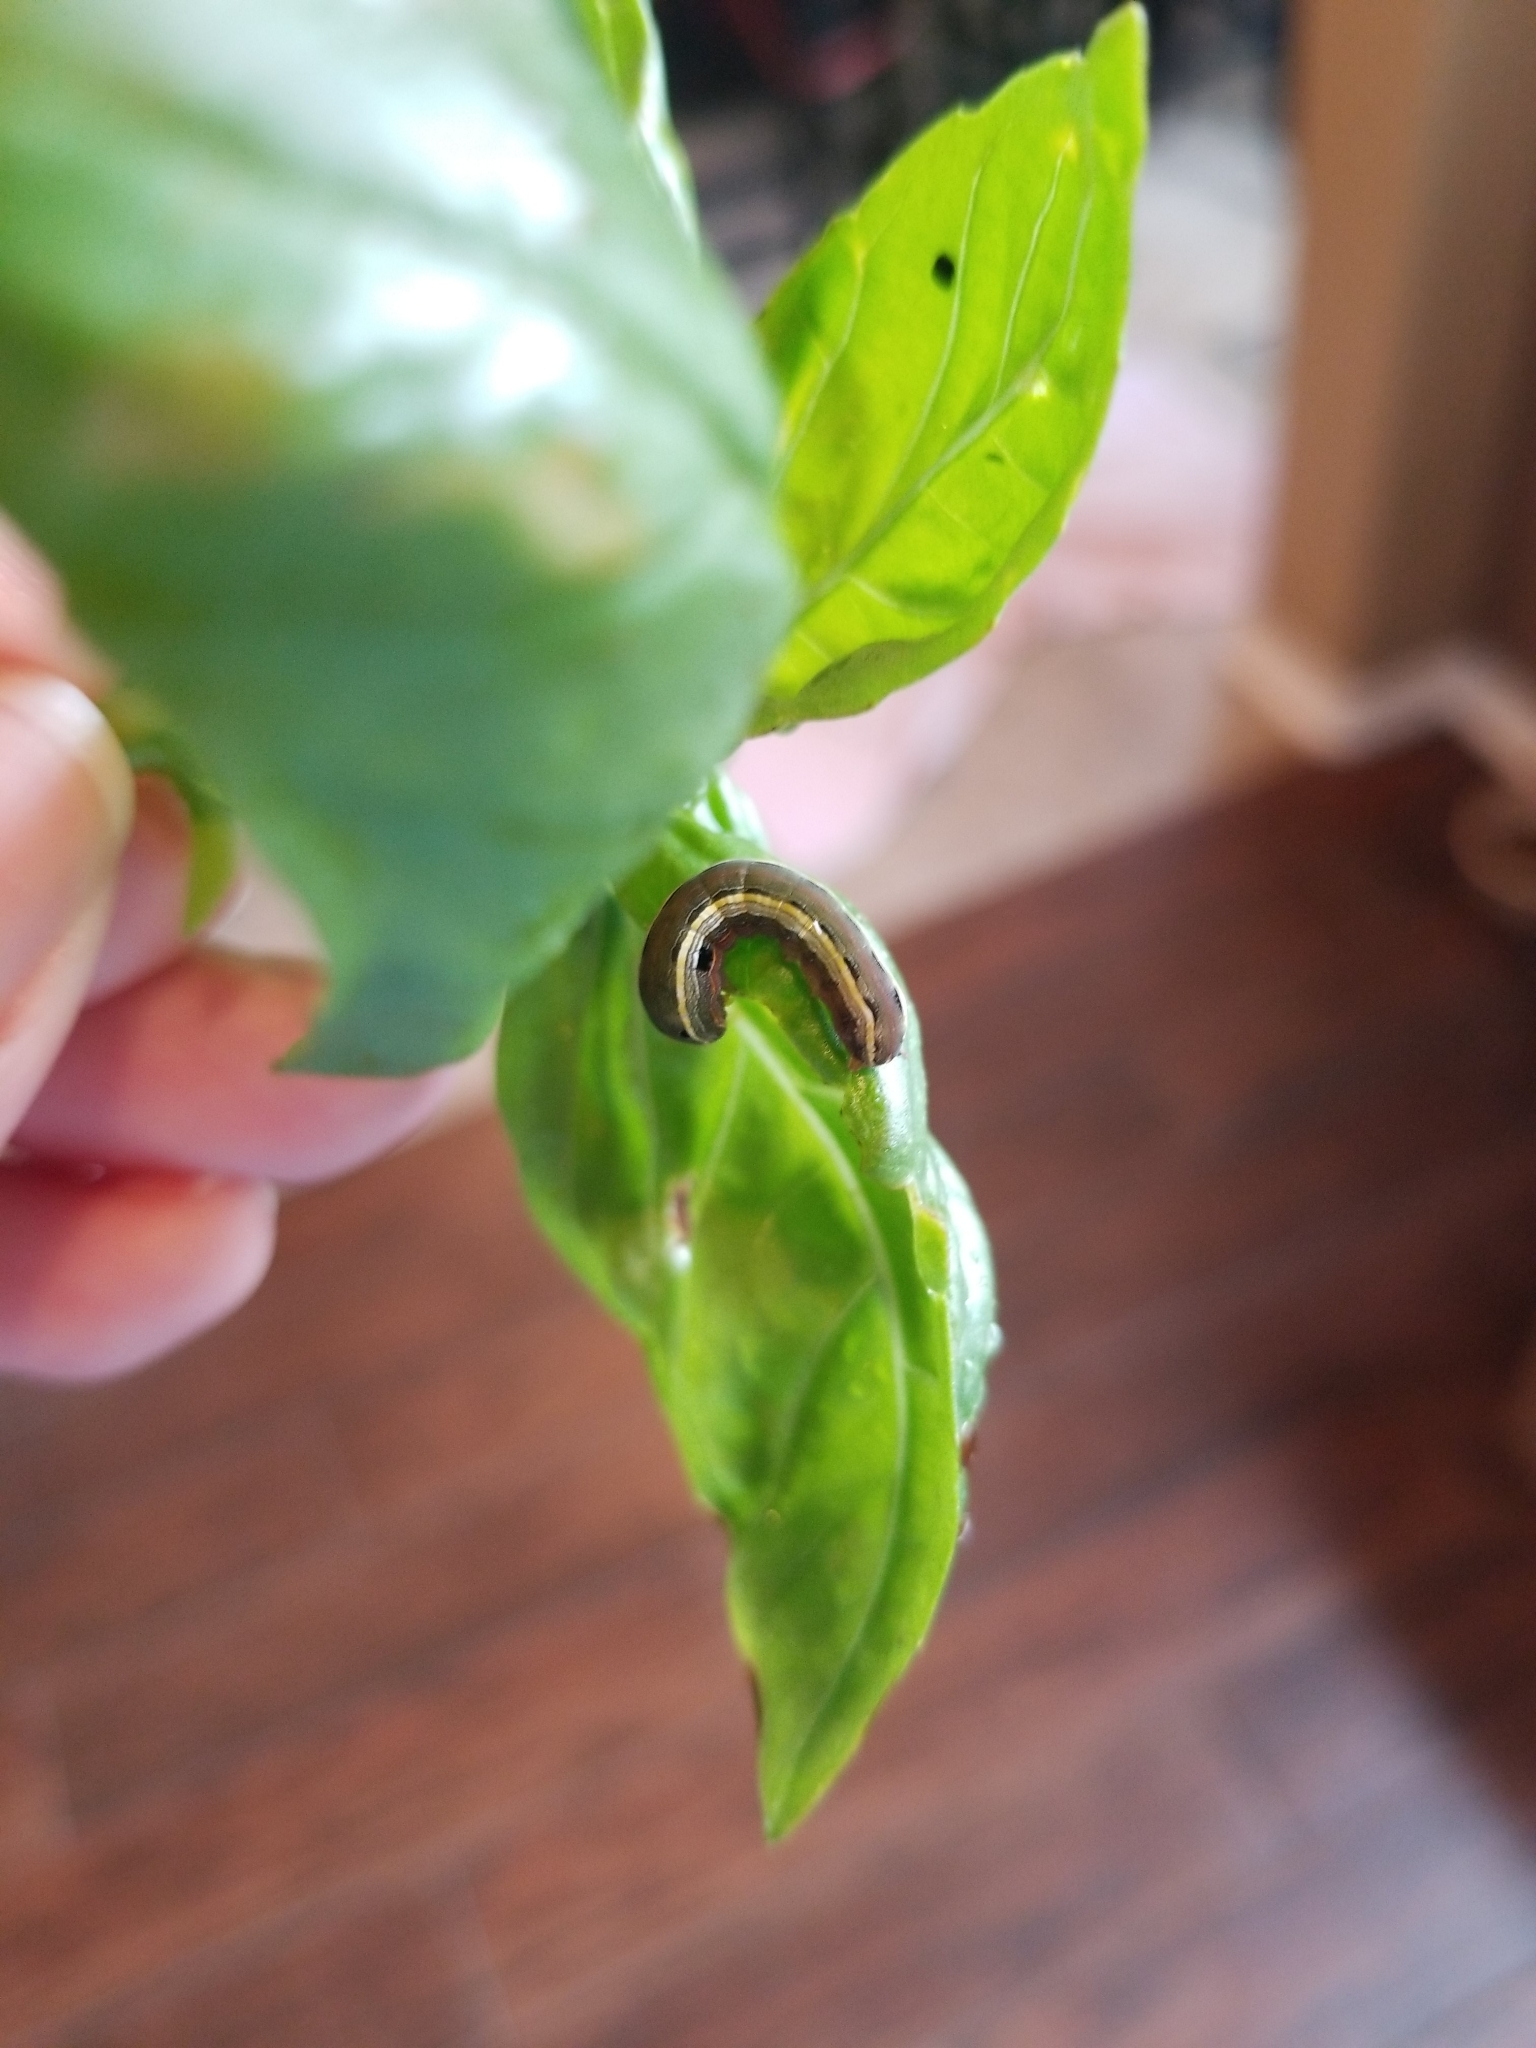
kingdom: Animalia
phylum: Arthropoda
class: Insecta
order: Lepidoptera
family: Noctuidae
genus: Spodoptera
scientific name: Spodoptera ornithogalli
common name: Yellow-striped armyworm
